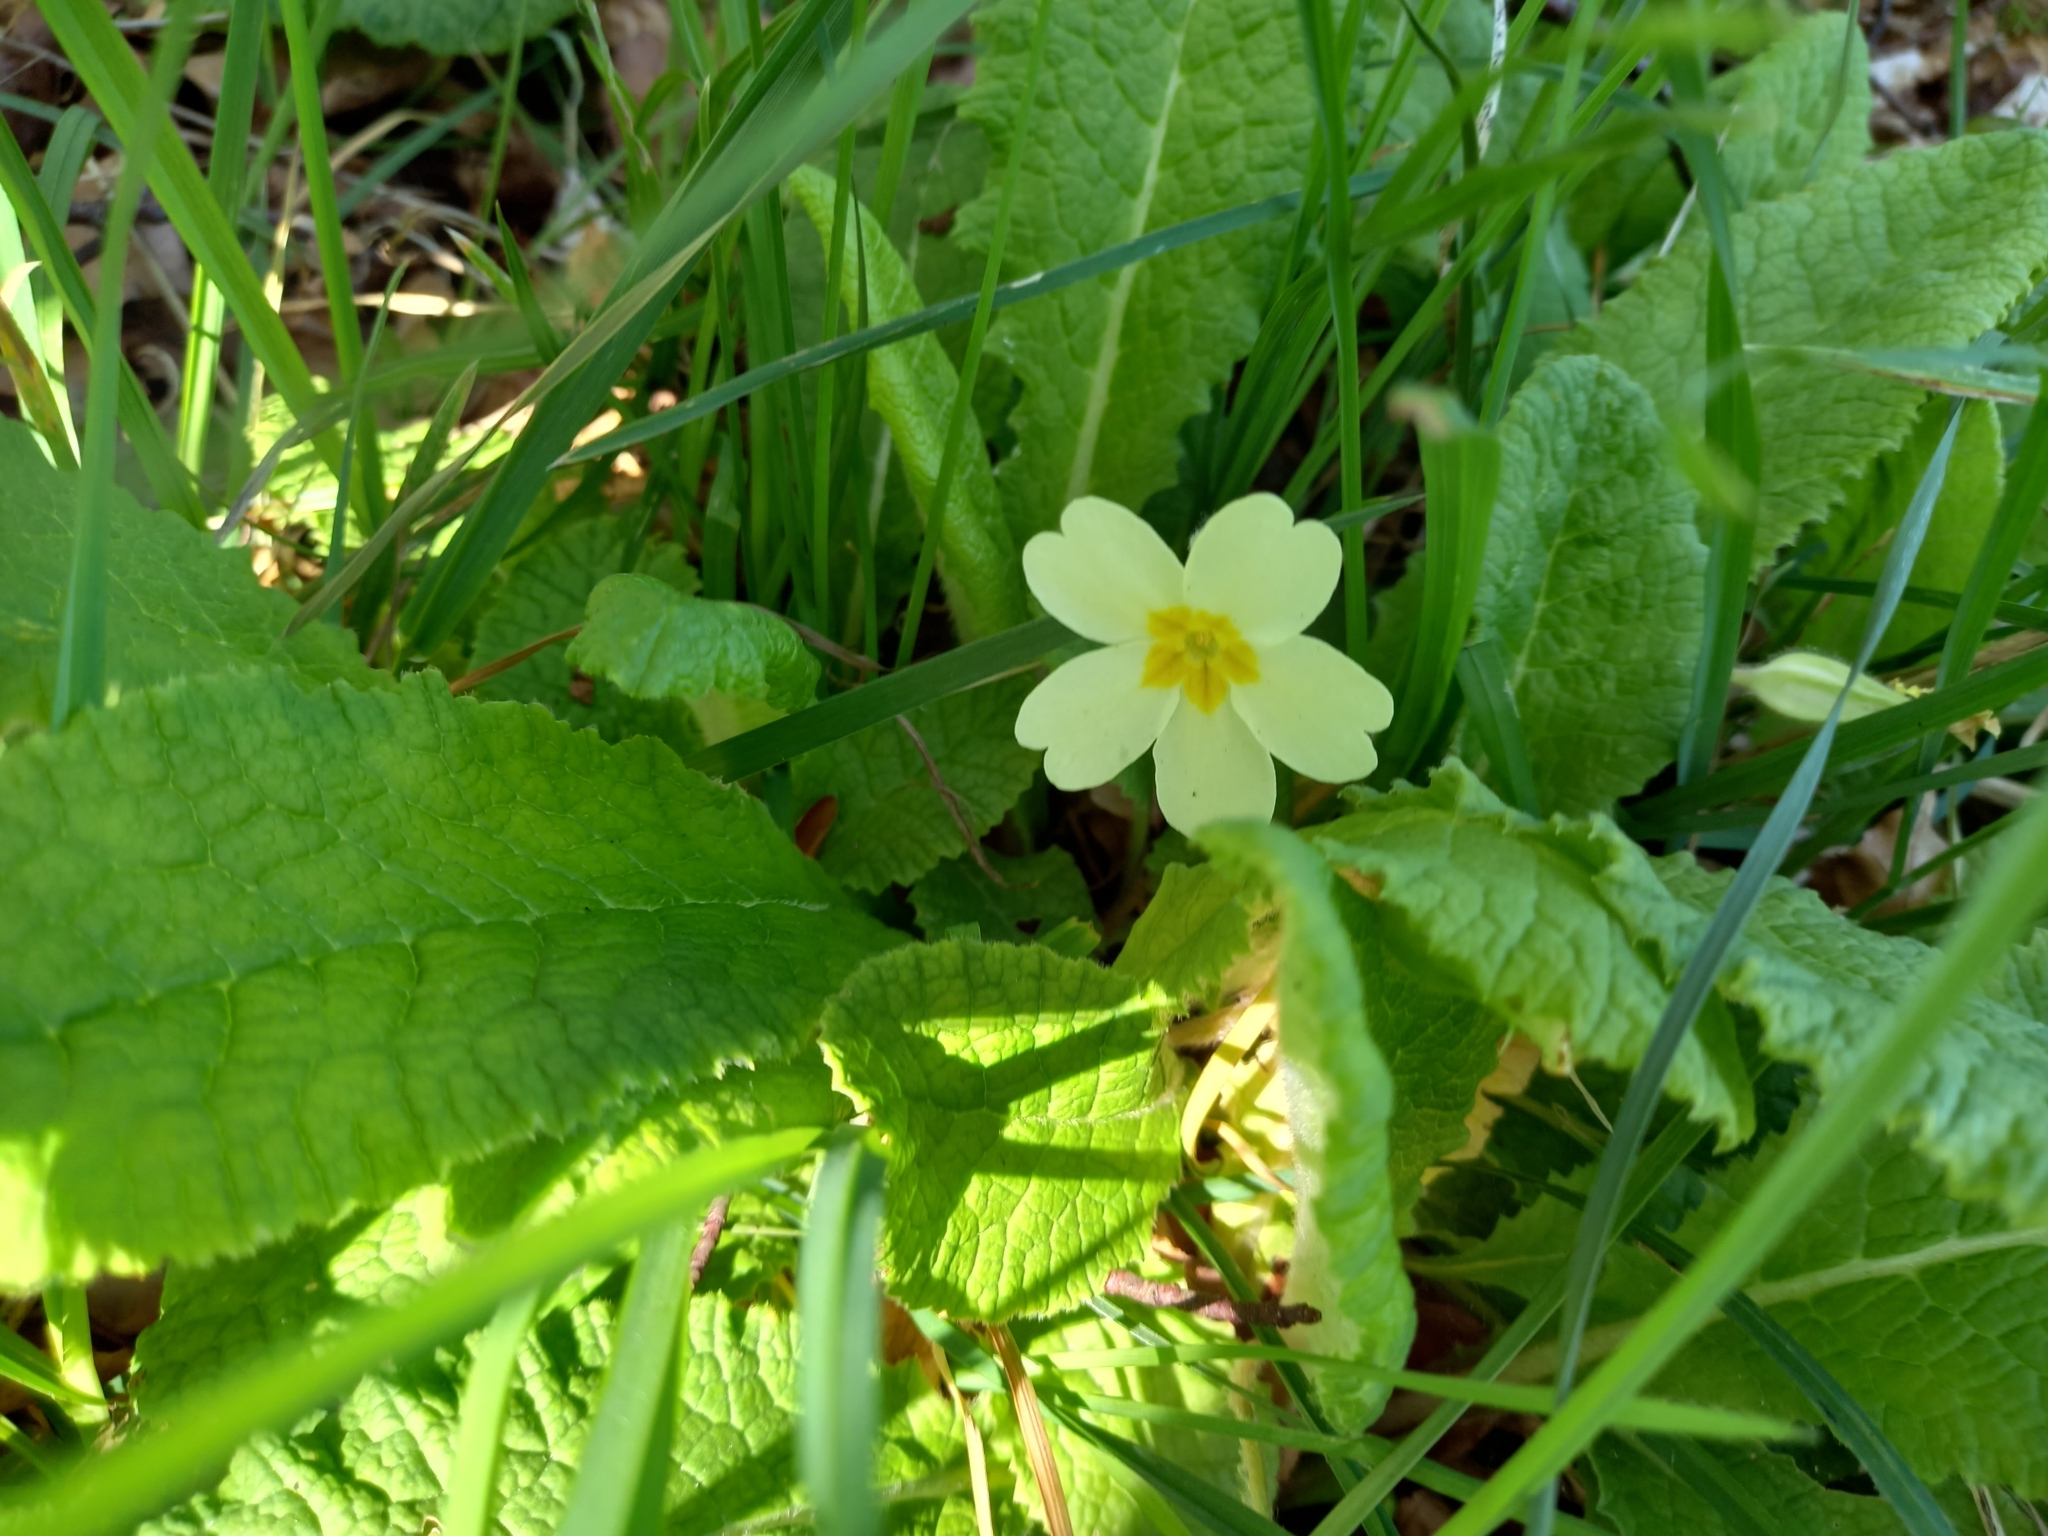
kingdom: Plantae
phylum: Tracheophyta
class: Magnoliopsida
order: Ericales
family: Primulaceae
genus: Primula
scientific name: Primula vulgaris
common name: Primrose
